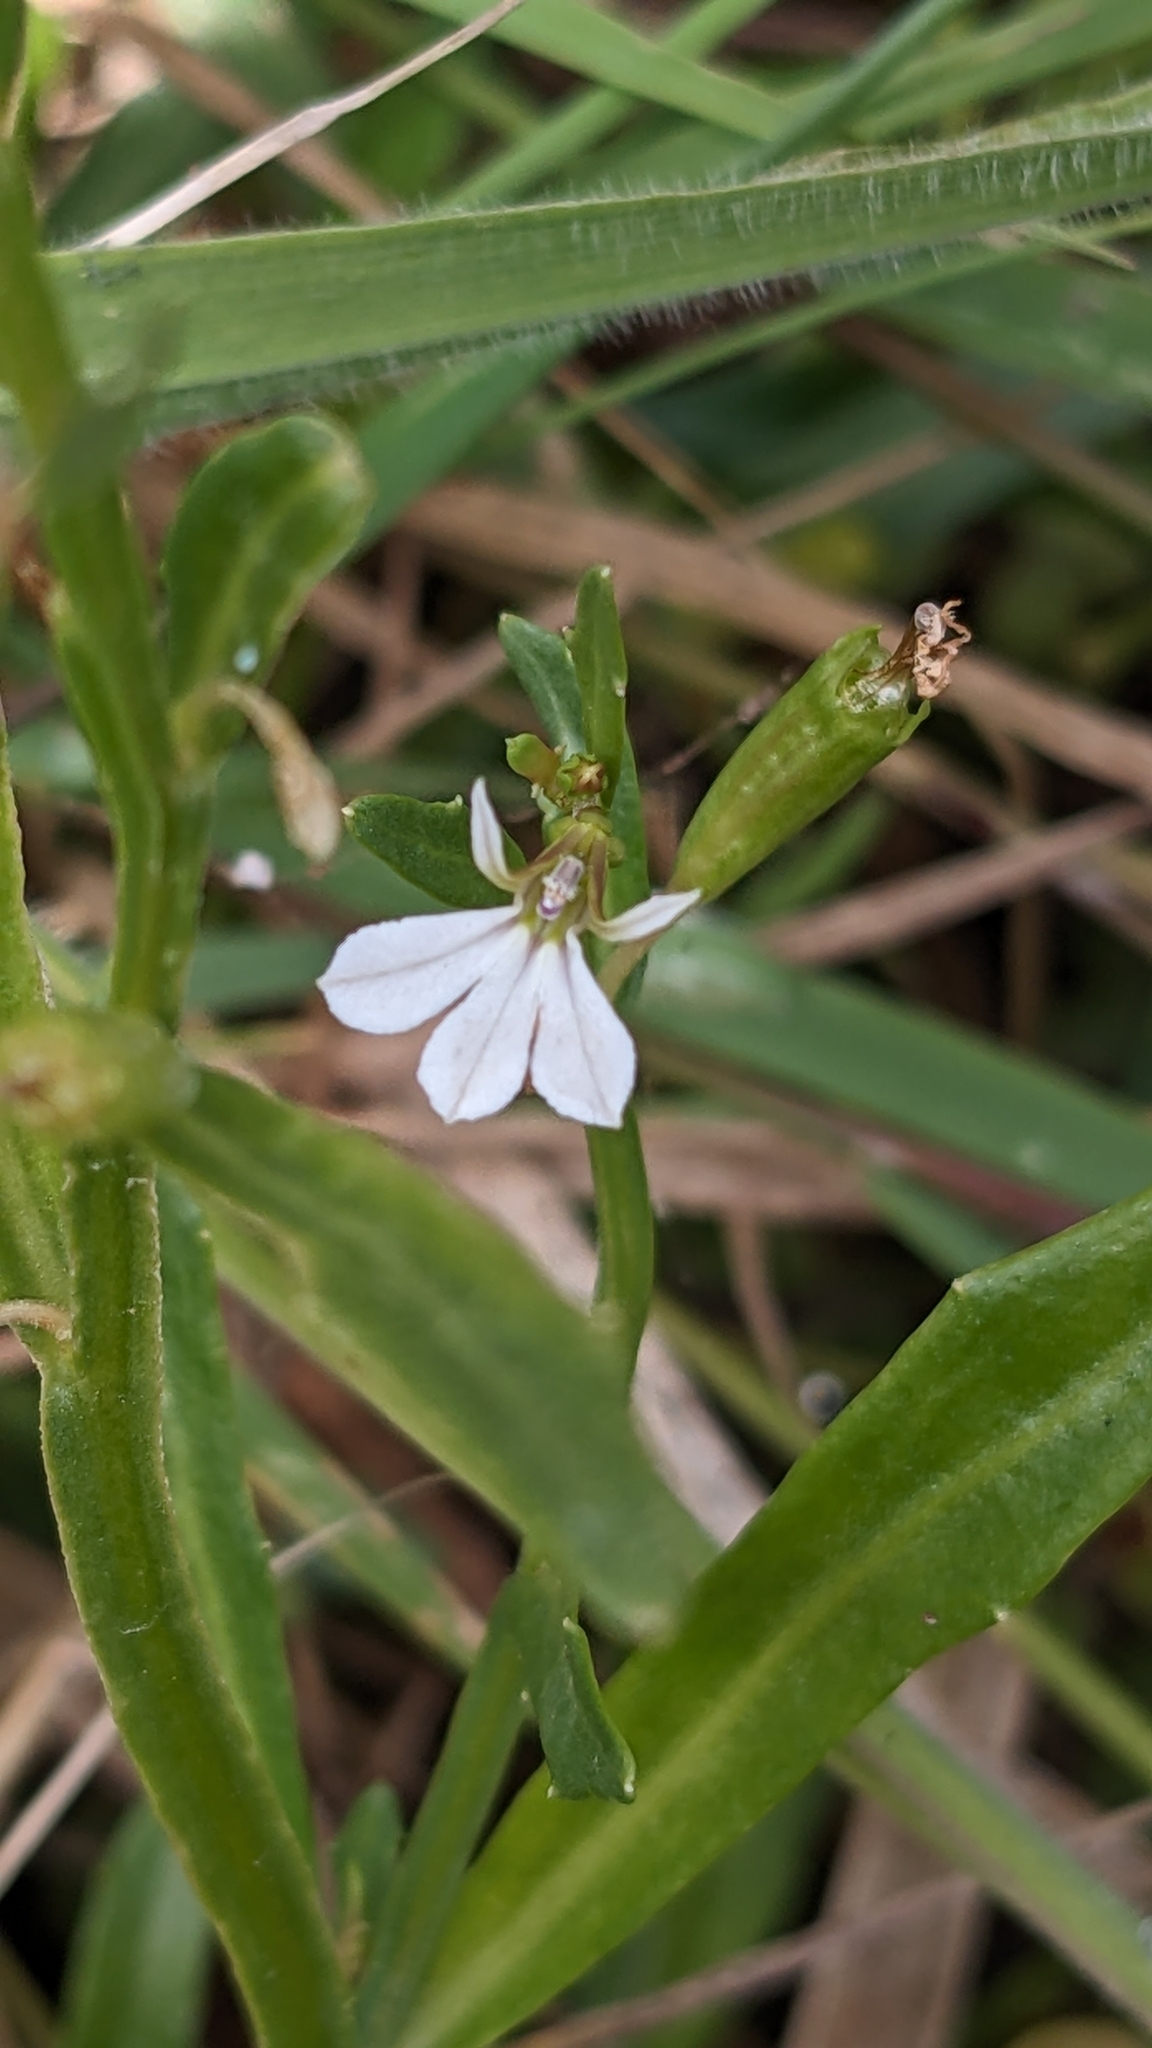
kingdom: Plantae
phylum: Tracheophyta
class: Magnoliopsida
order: Asterales
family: Campanulaceae
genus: Lobelia
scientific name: Lobelia anceps
